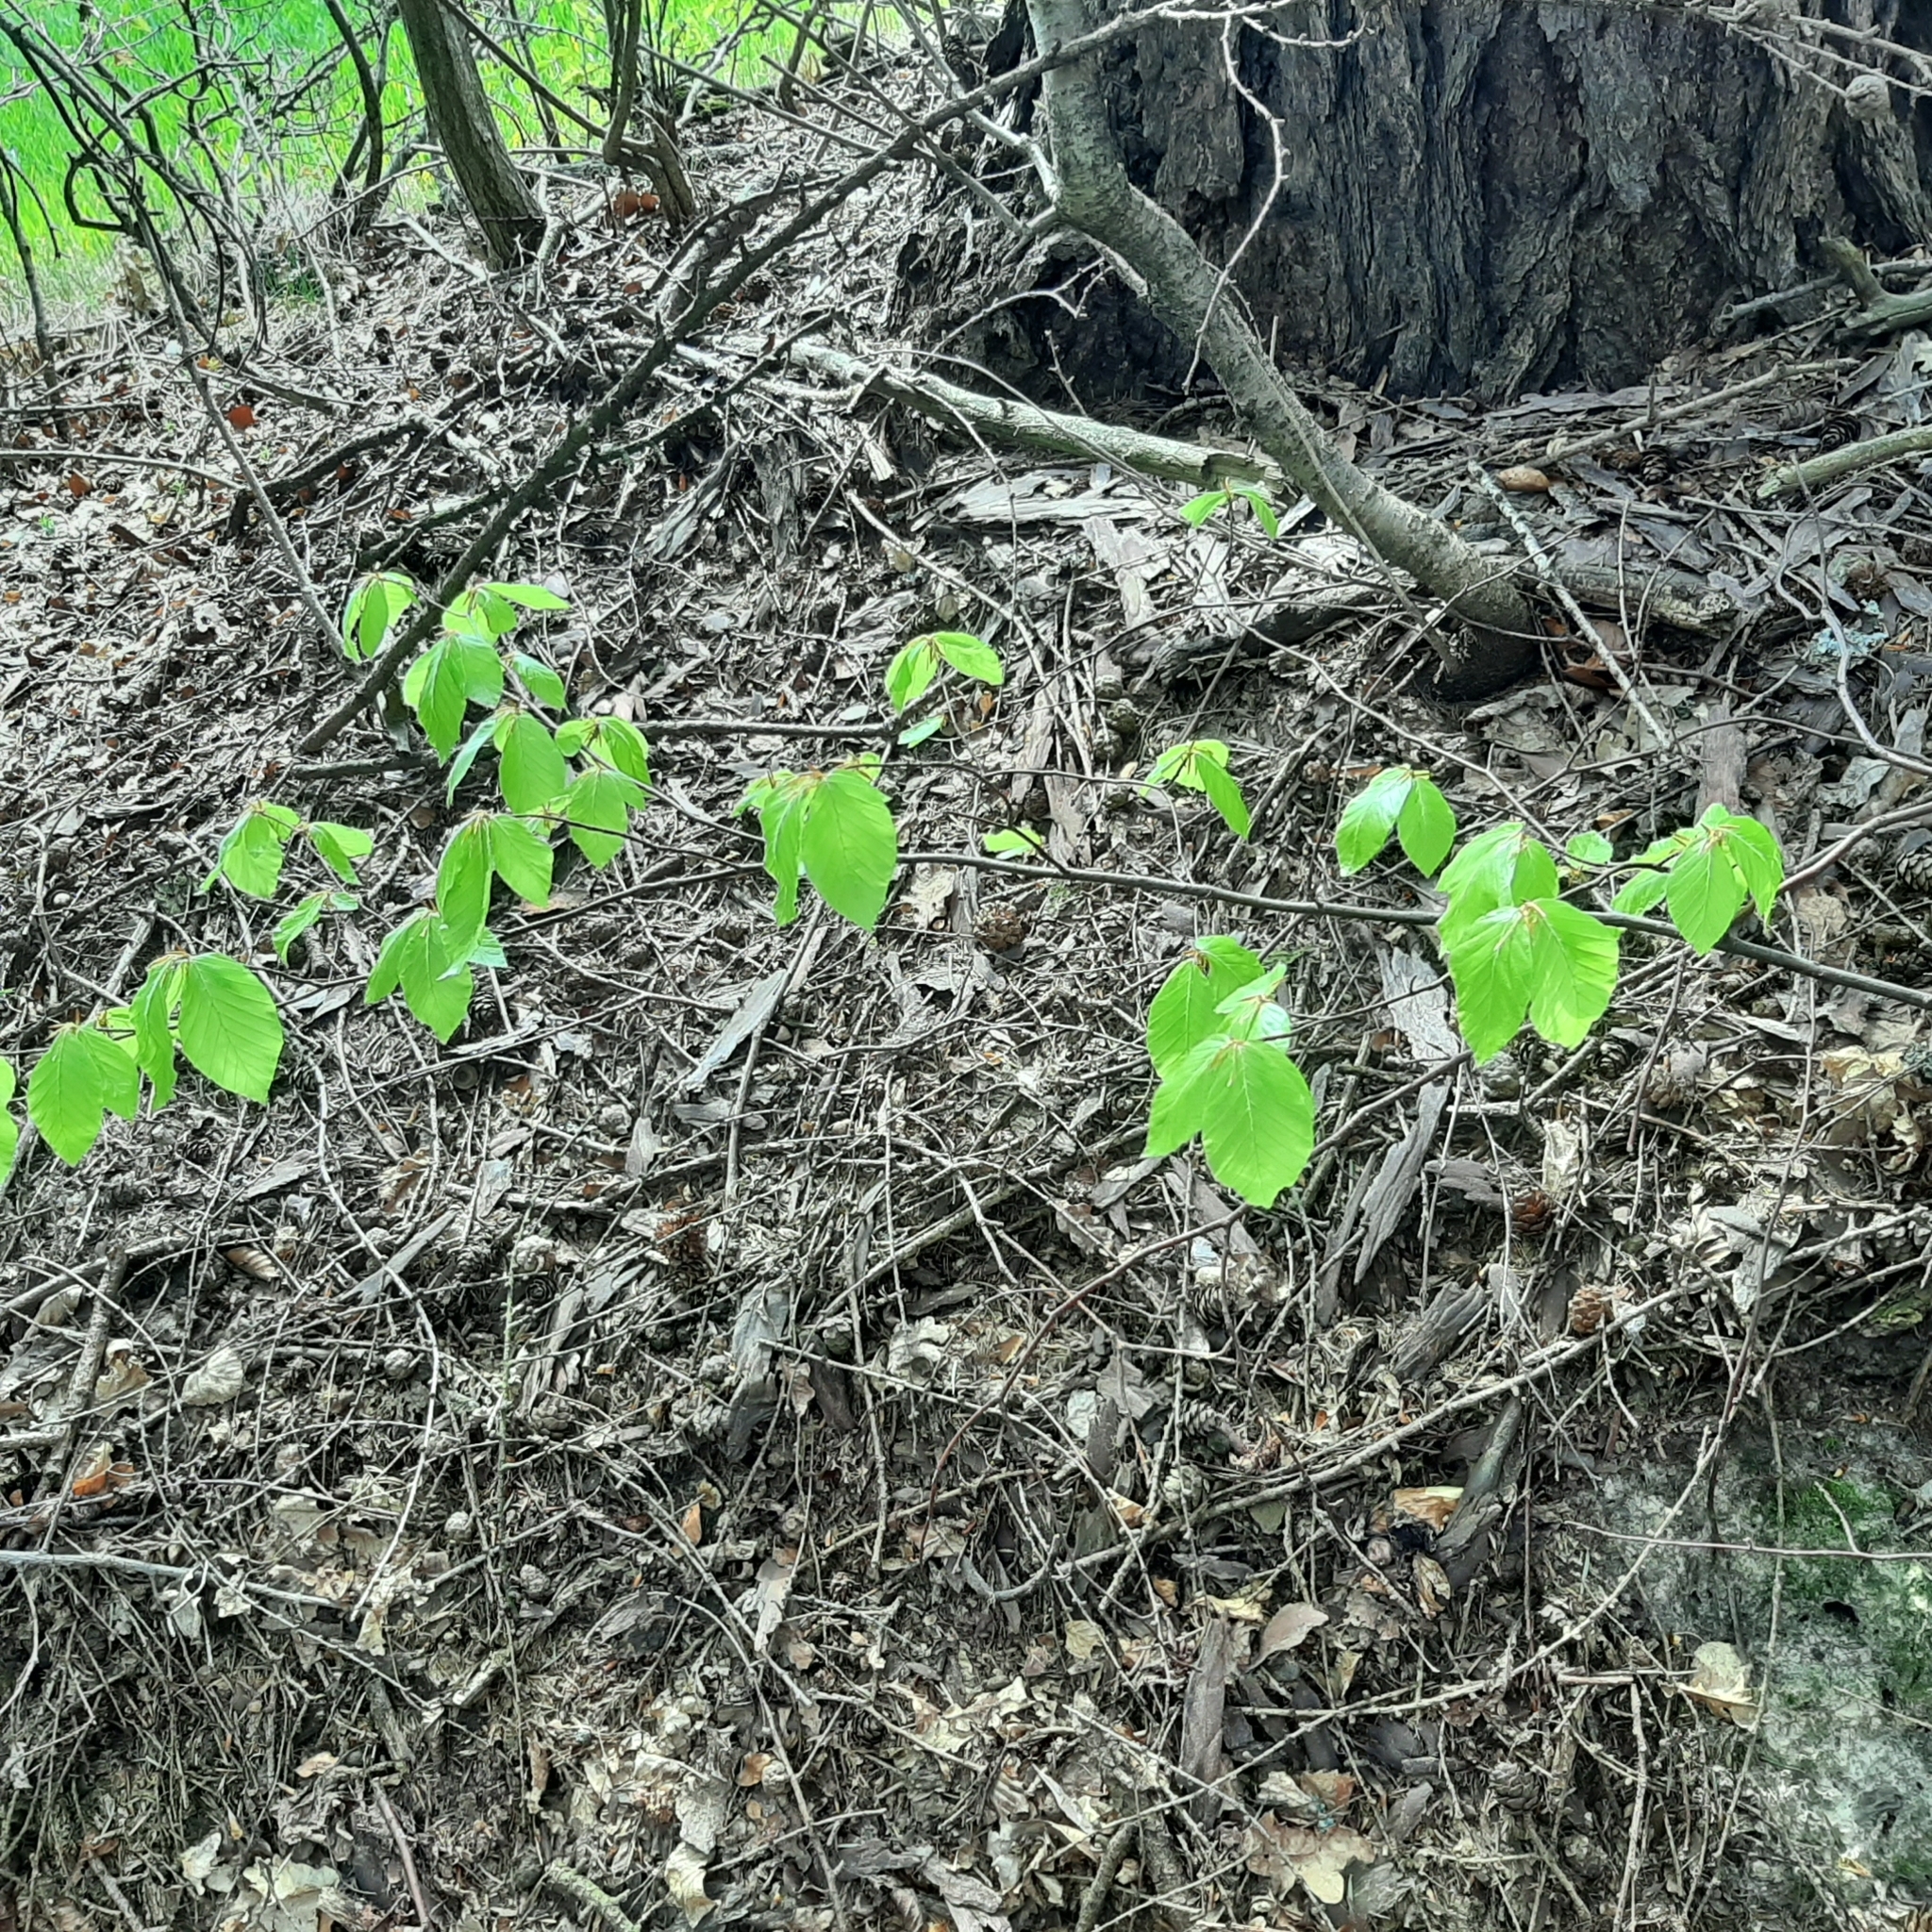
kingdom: Plantae
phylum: Tracheophyta
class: Magnoliopsida
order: Fagales
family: Fagaceae
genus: Fagus
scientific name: Fagus sylvatica
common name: Beech
